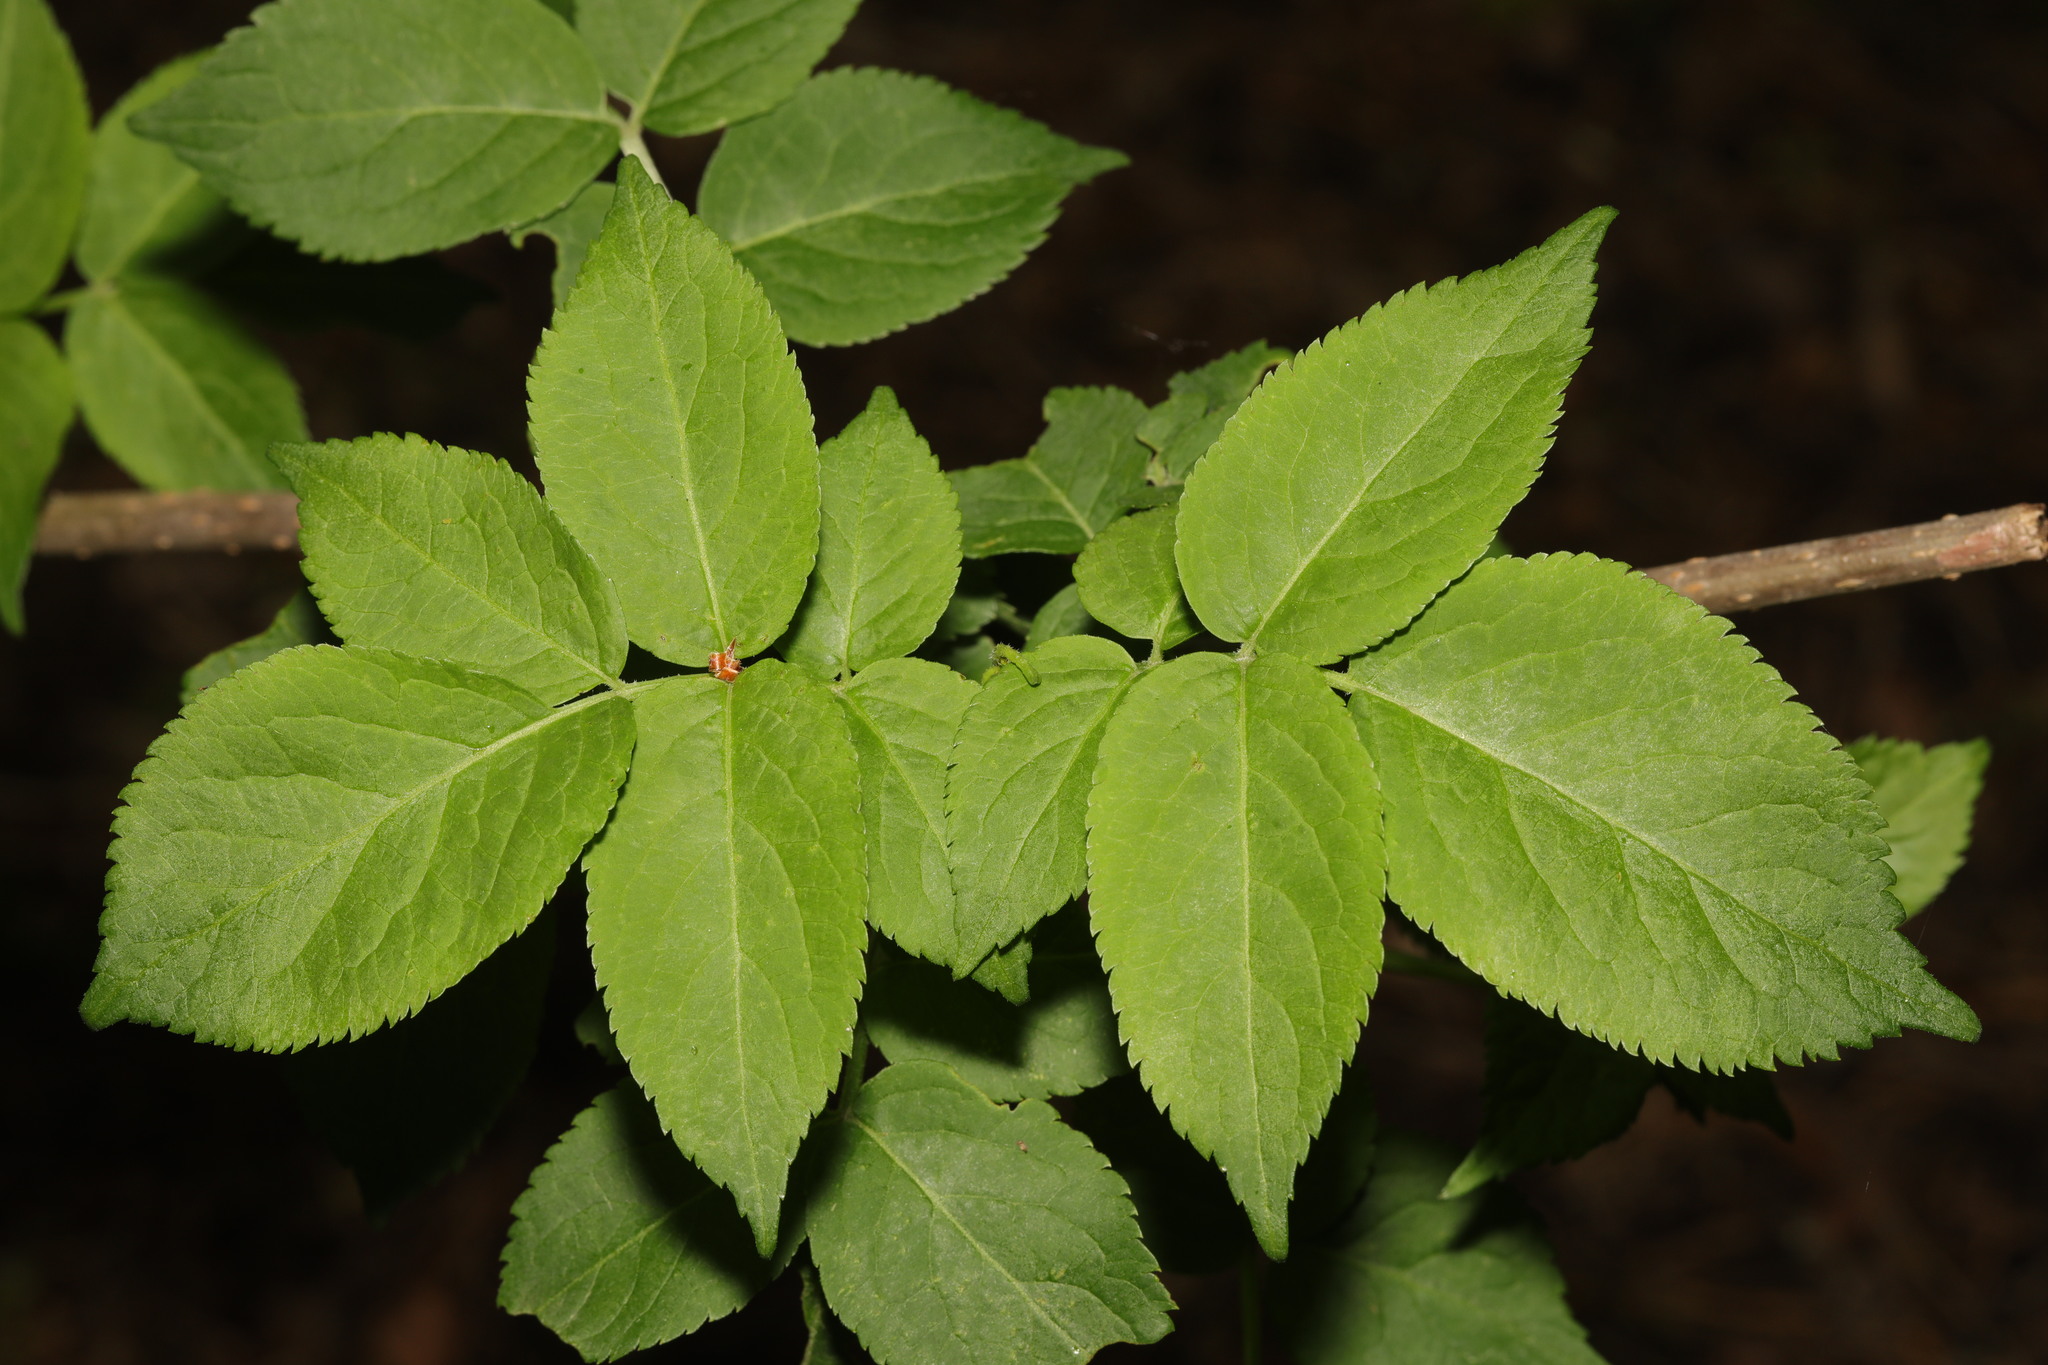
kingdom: Plantae
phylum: Tracheophyta
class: Magnoliopsida
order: Dipsacales
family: Viburnaceae
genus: Sambucus
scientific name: Sambucus nigra
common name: Elder
